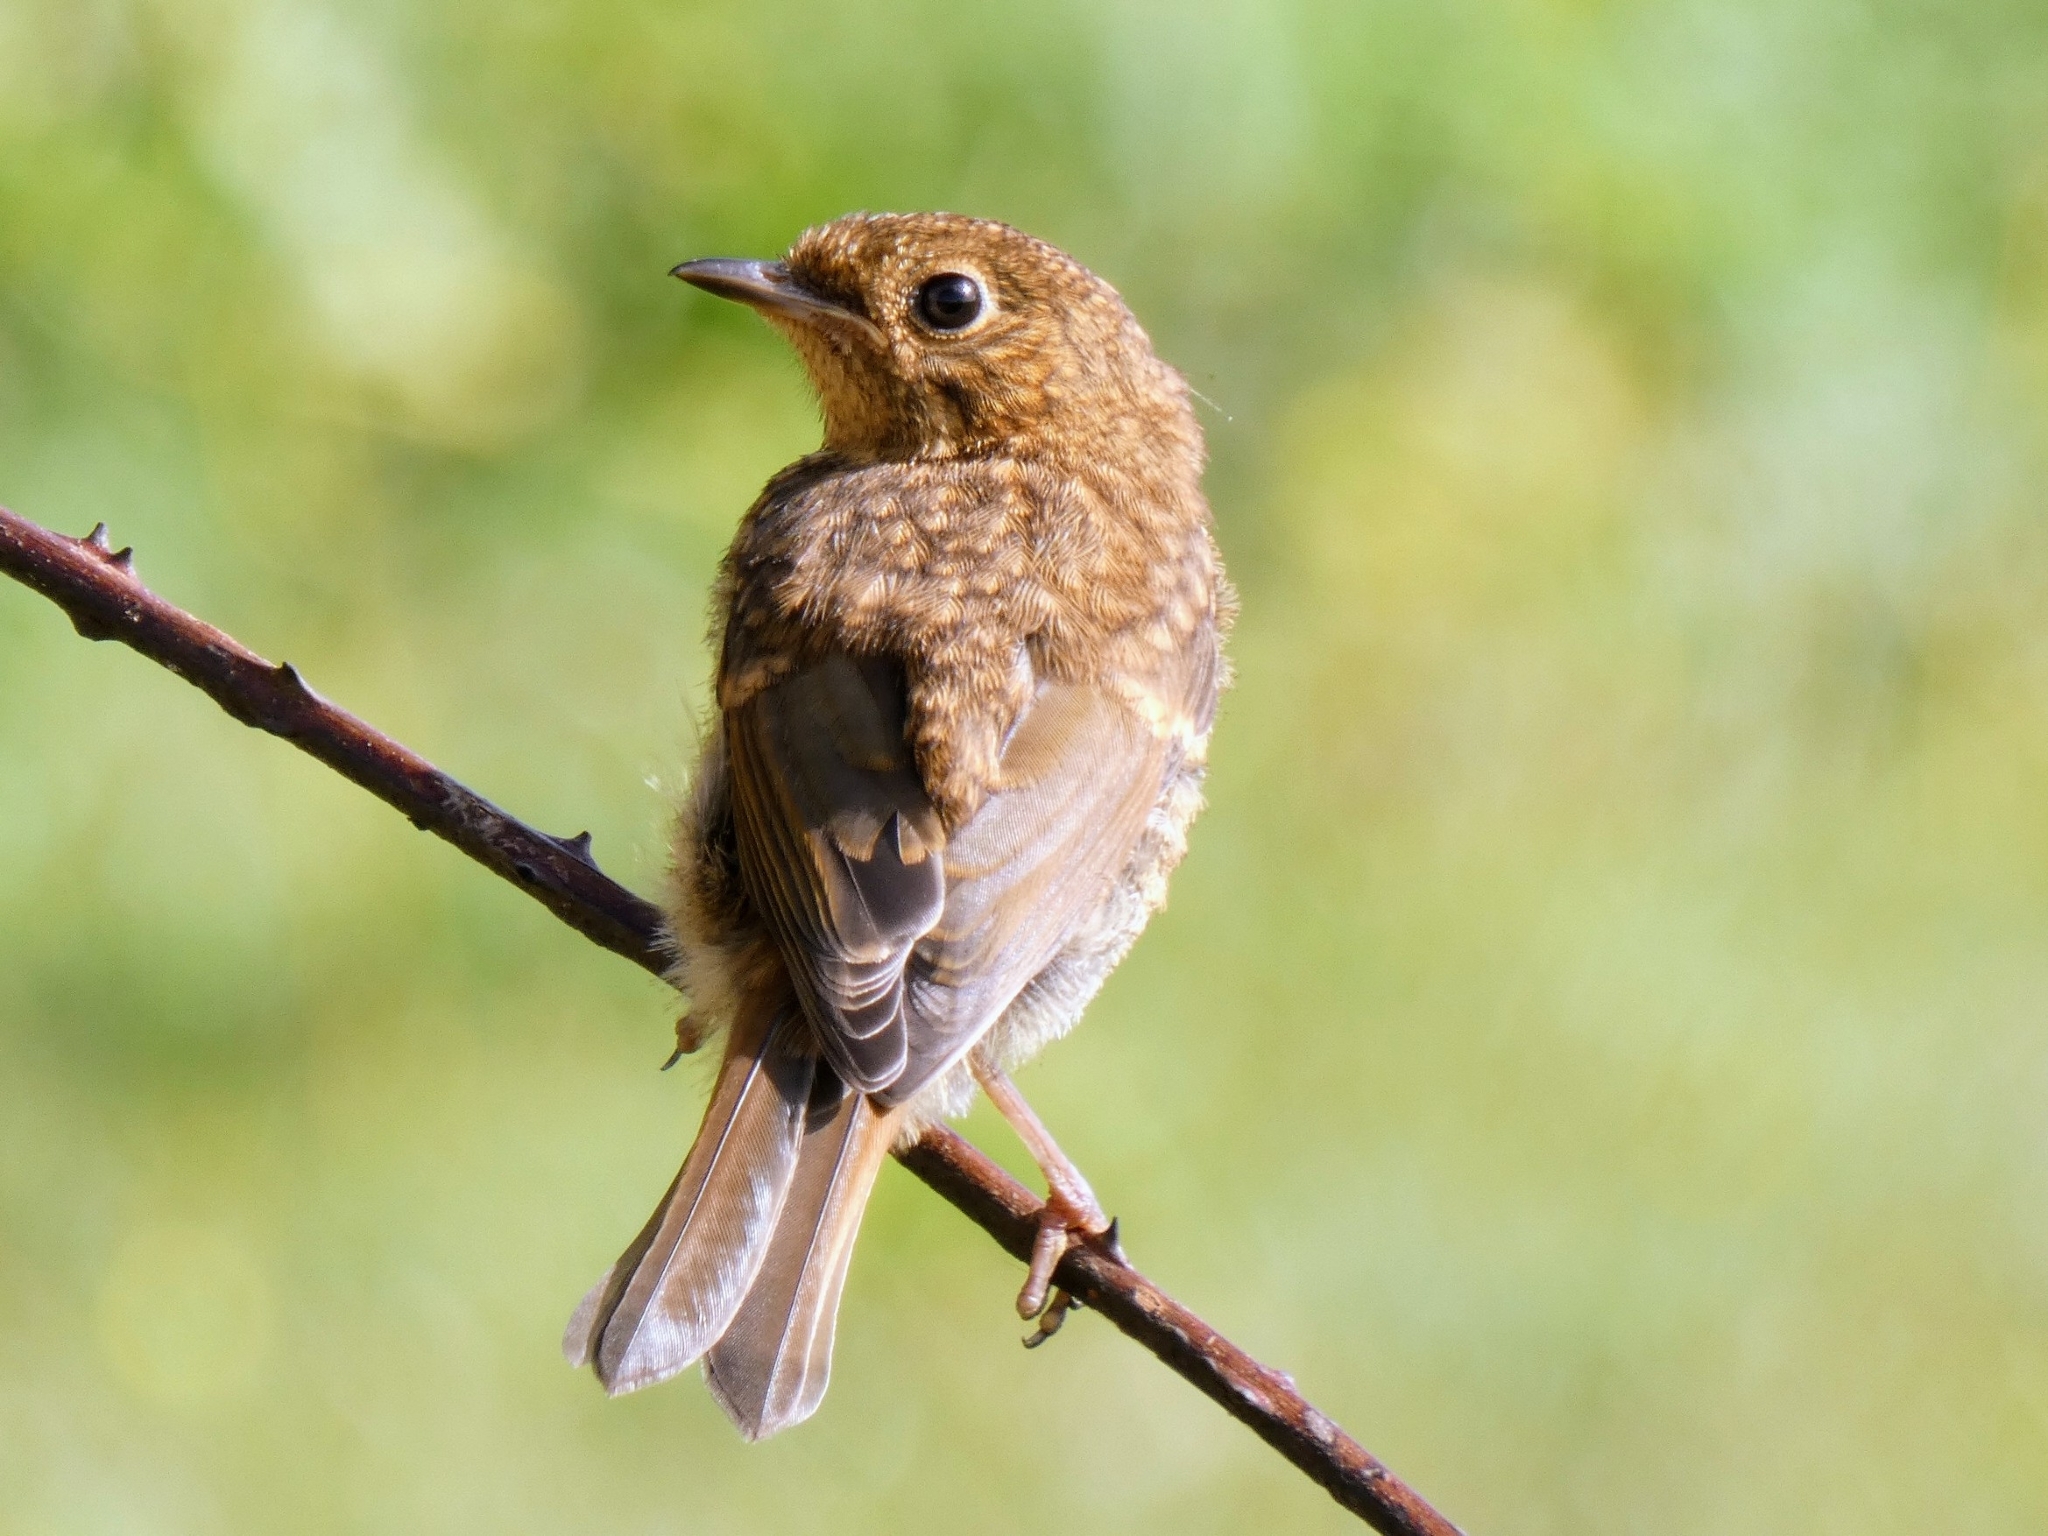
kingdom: Animalia
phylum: Chordata
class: Aves
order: Passeriformes
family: Muscicapidae
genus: Erithacus
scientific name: Erithacus rubecula
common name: European robin
